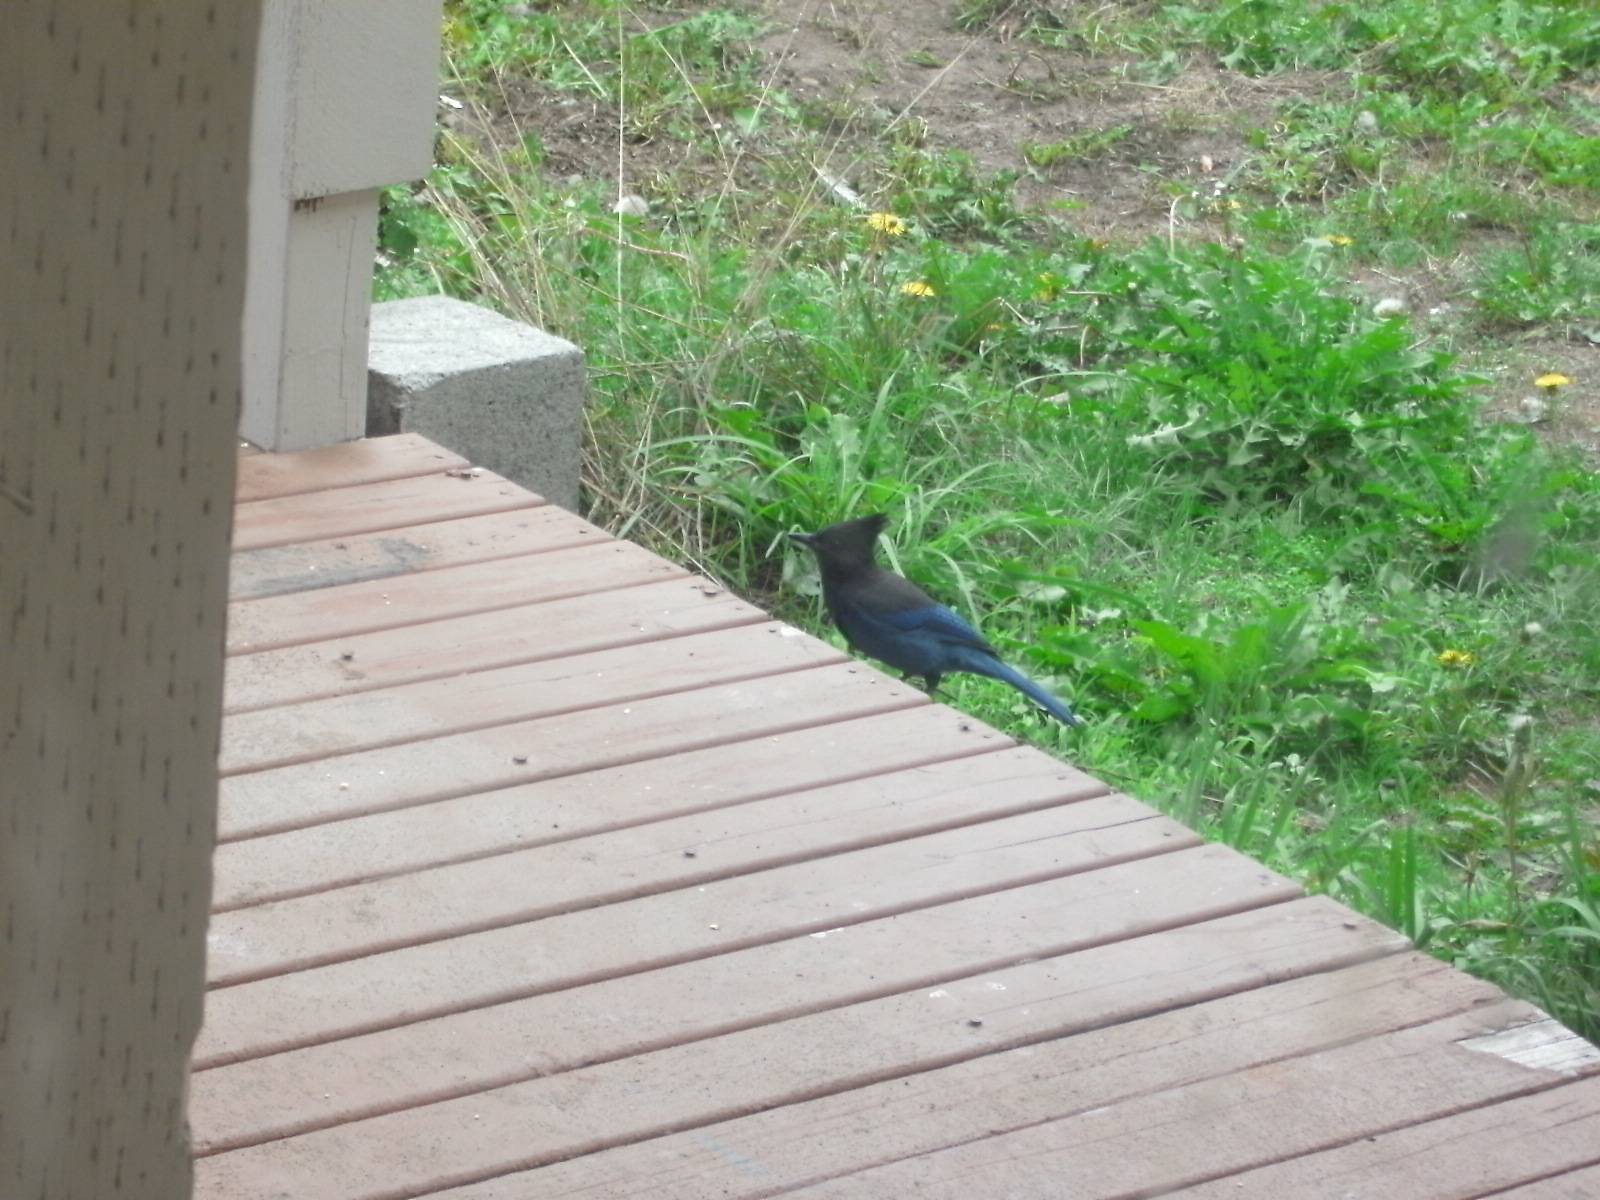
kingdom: Animalia
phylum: Chordata
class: Aves
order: Passeriformes
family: Corvidae
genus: Cyanocitta
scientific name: Cyanocitta stelleri
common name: Steller's jay
